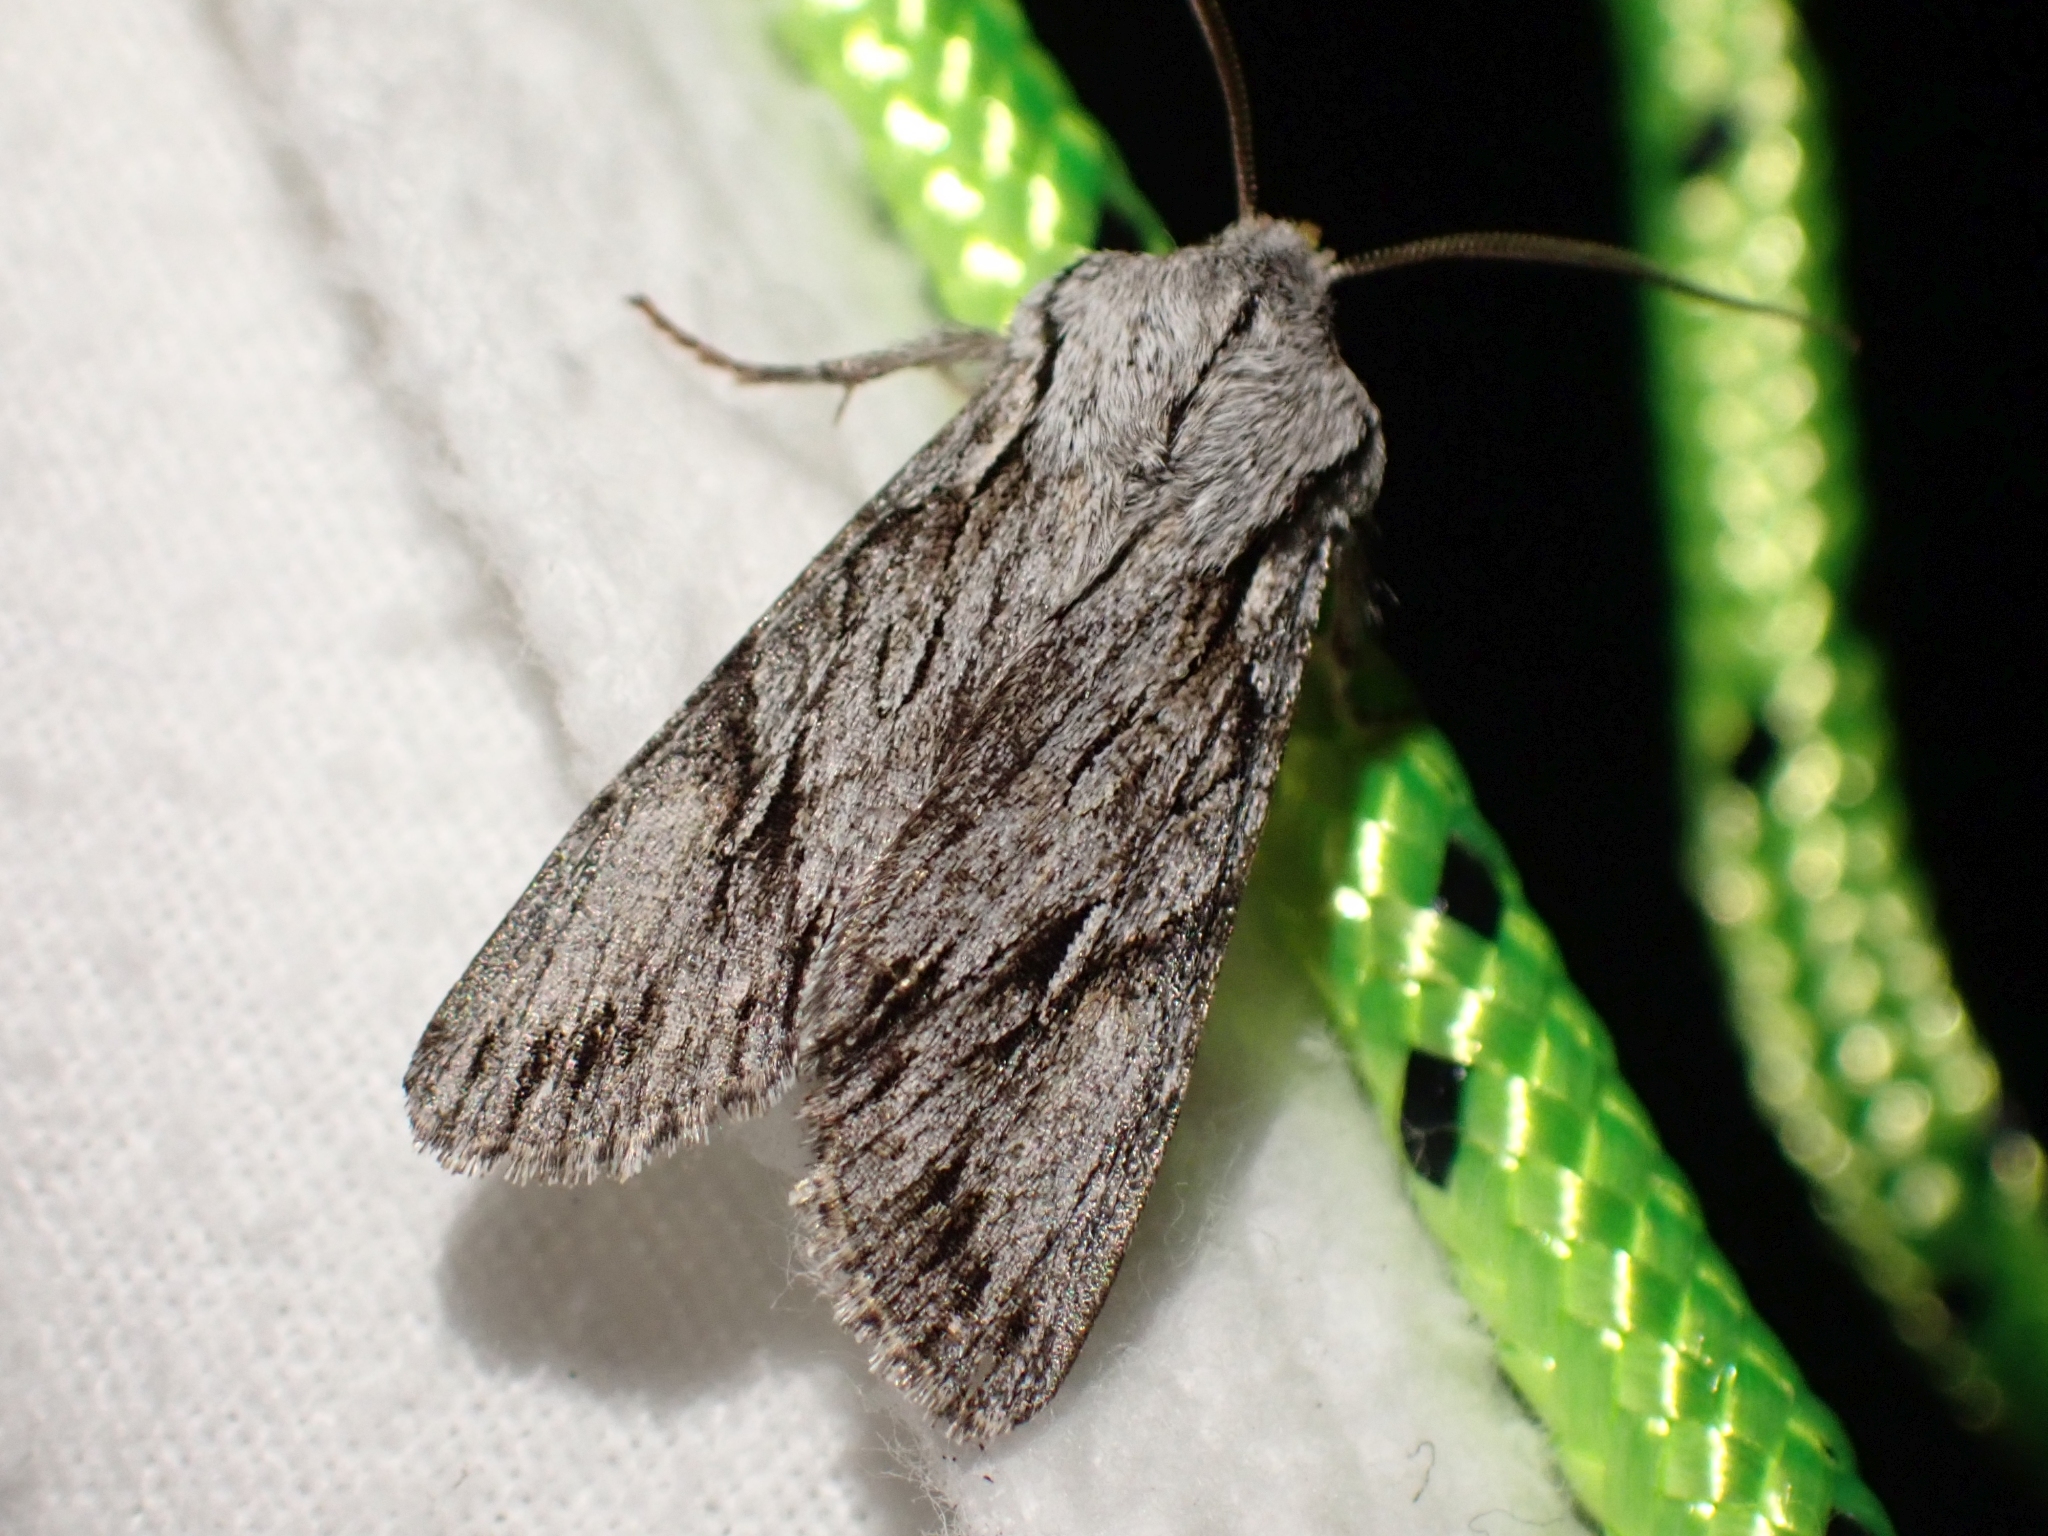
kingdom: Animalia
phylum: Arthropoda
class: Insecta
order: Lepidoptera
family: Noctuidae
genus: Egira
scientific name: Egira crucialis
